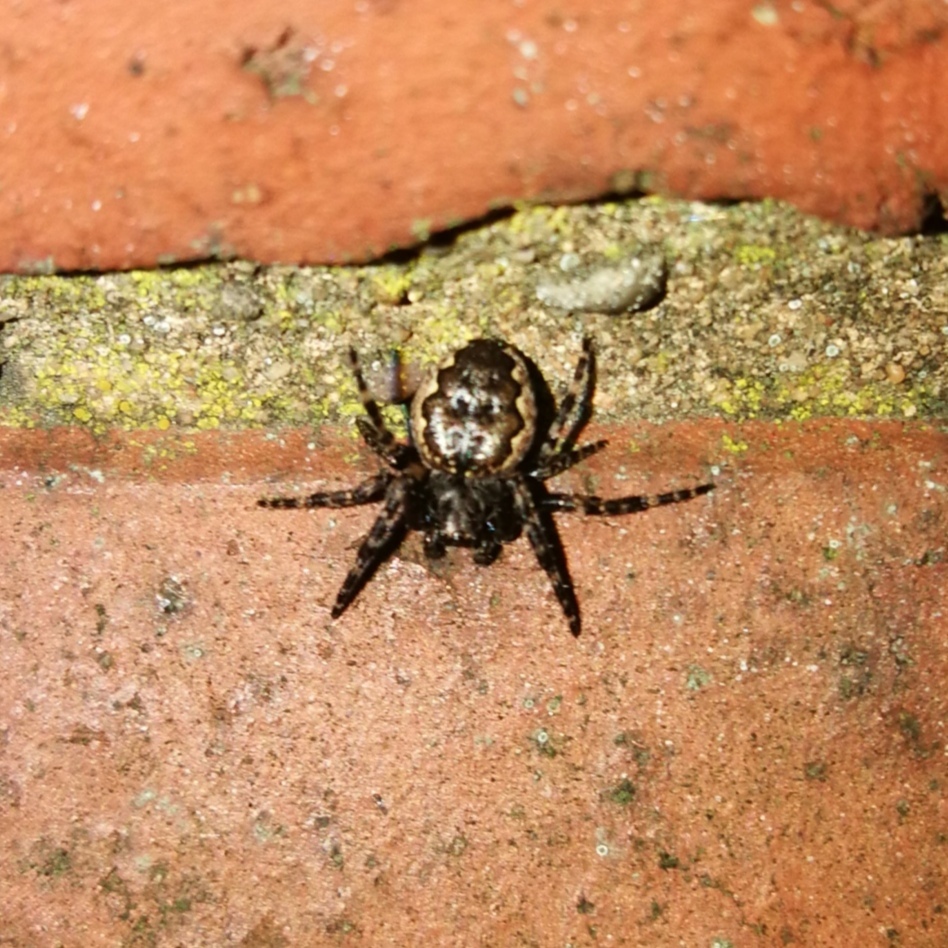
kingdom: Animalia
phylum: Arthropoda
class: Arachnida
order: Araneae
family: Araneidae
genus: Nuctenea
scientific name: Nuctenea umbratica
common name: Toad spider
